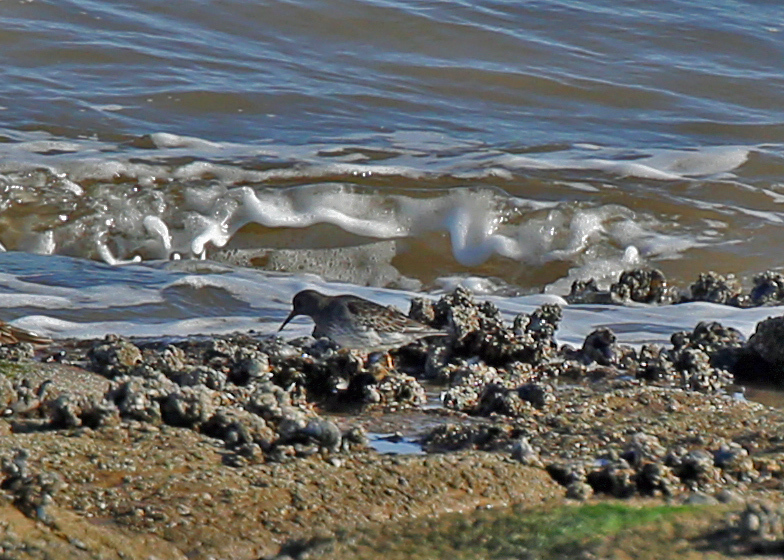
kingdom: Animalia
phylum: Chordata
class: Aves
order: Charadriiformes
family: Scolopacidae
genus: Calidris
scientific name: Calidris maritima
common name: Purple sandpiper
